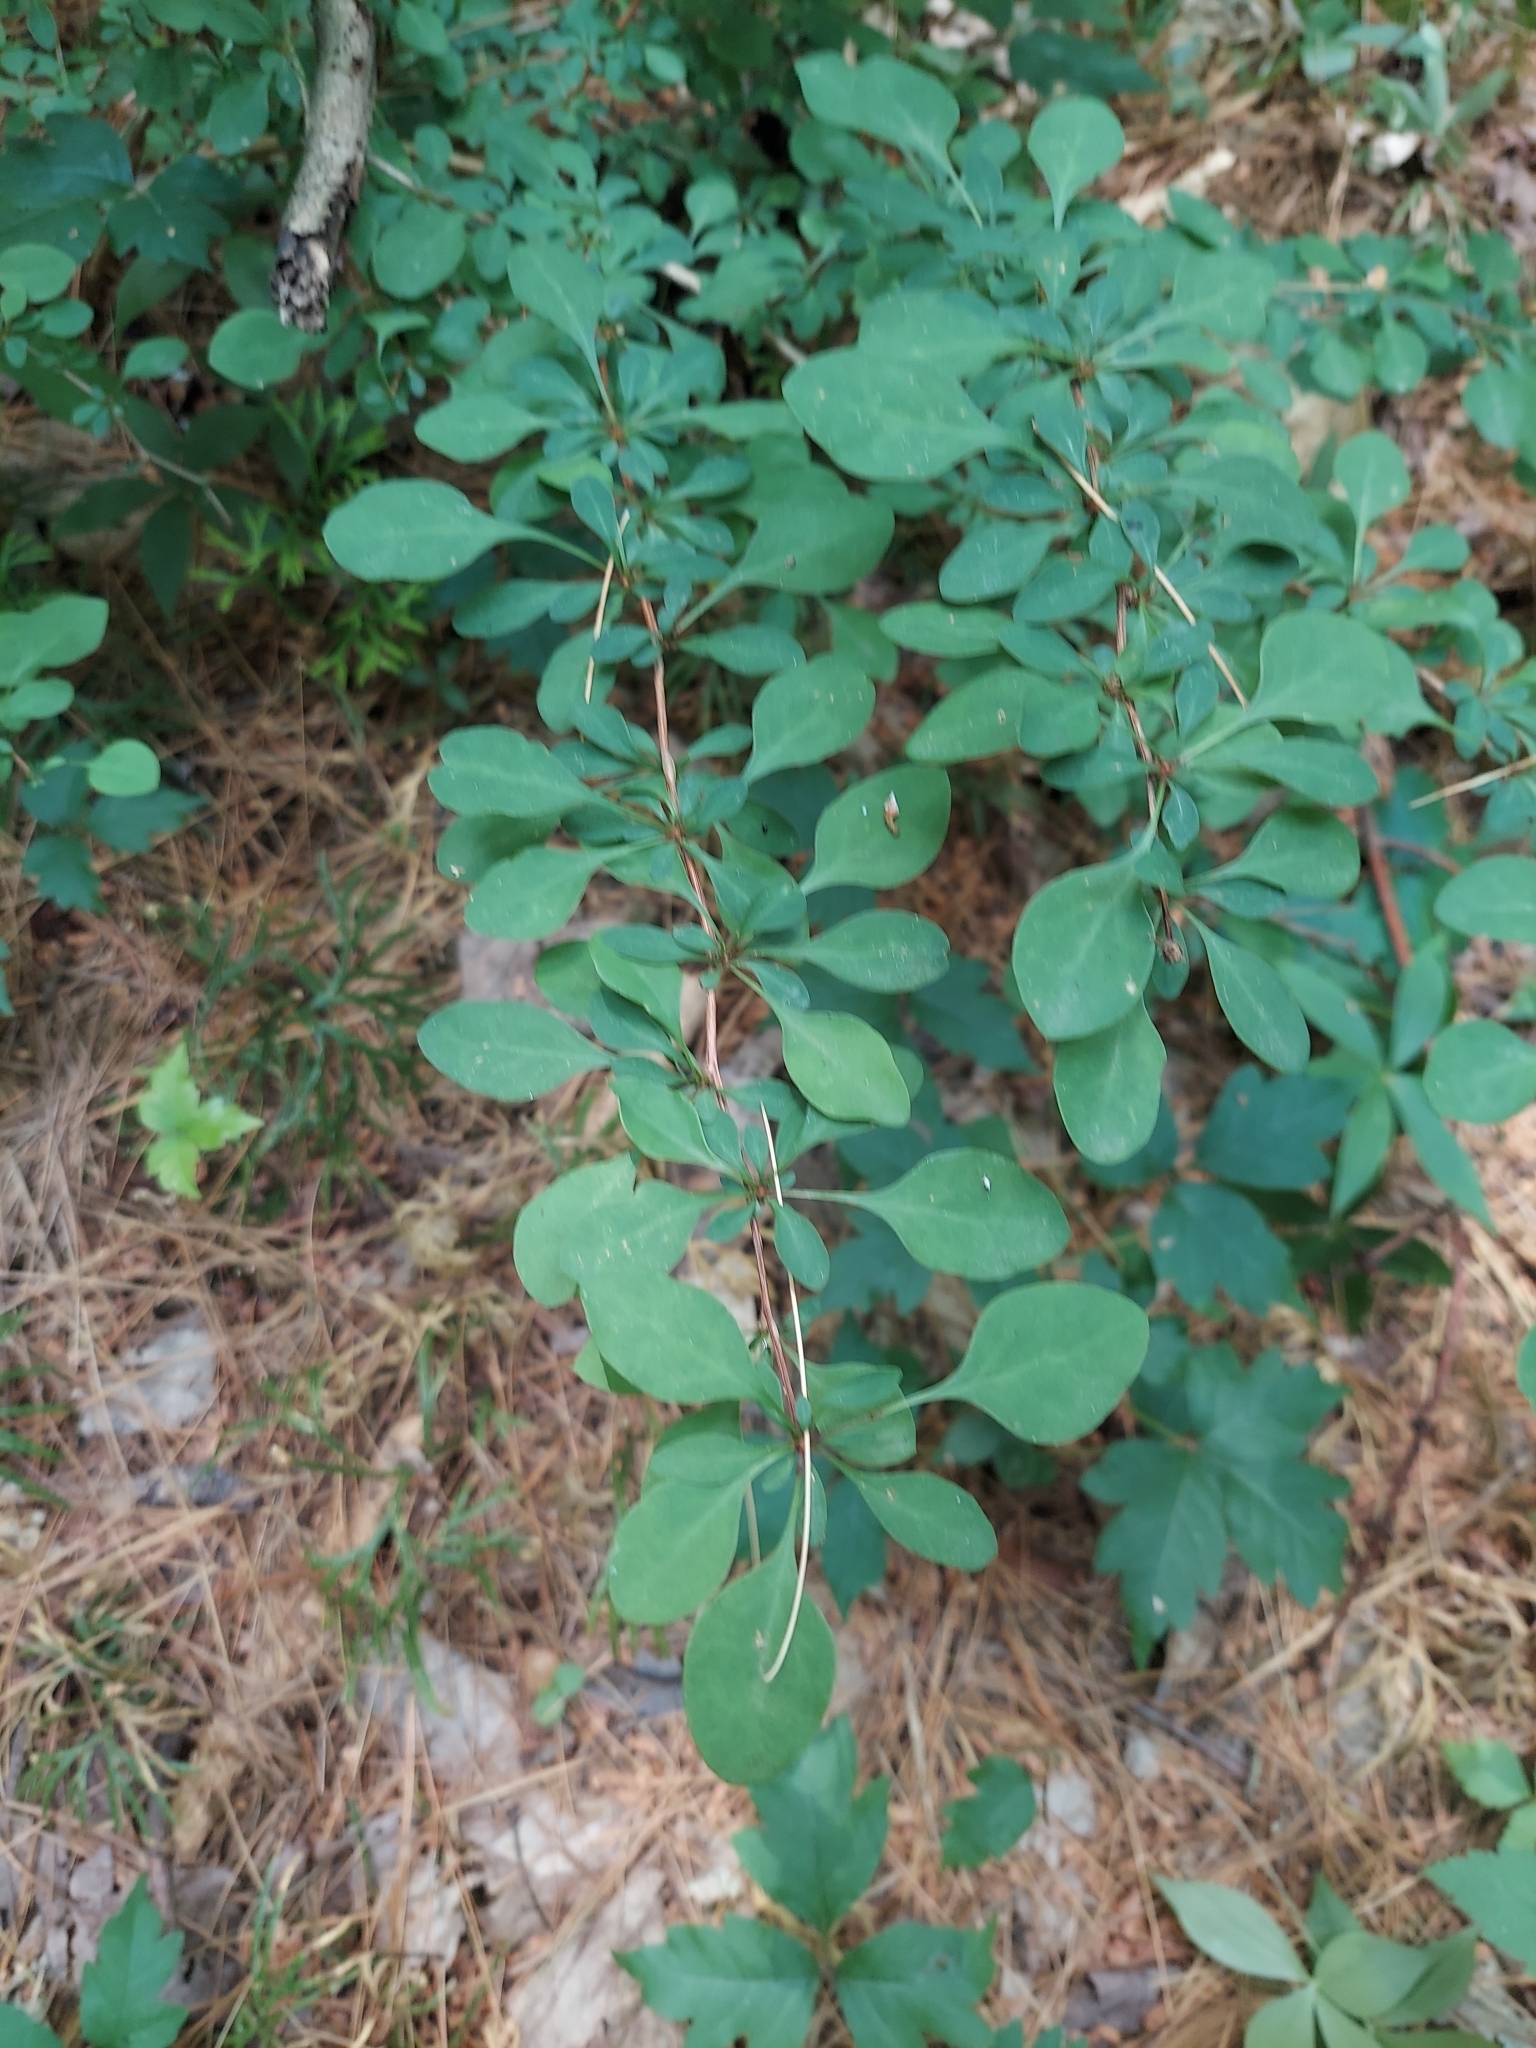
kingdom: Plantae
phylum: Tracheophyta
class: Magnoliopsida
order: Ranunculales
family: Berberidaceae
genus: Berberis
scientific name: Berberis thunbergii
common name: Japanese barberry
